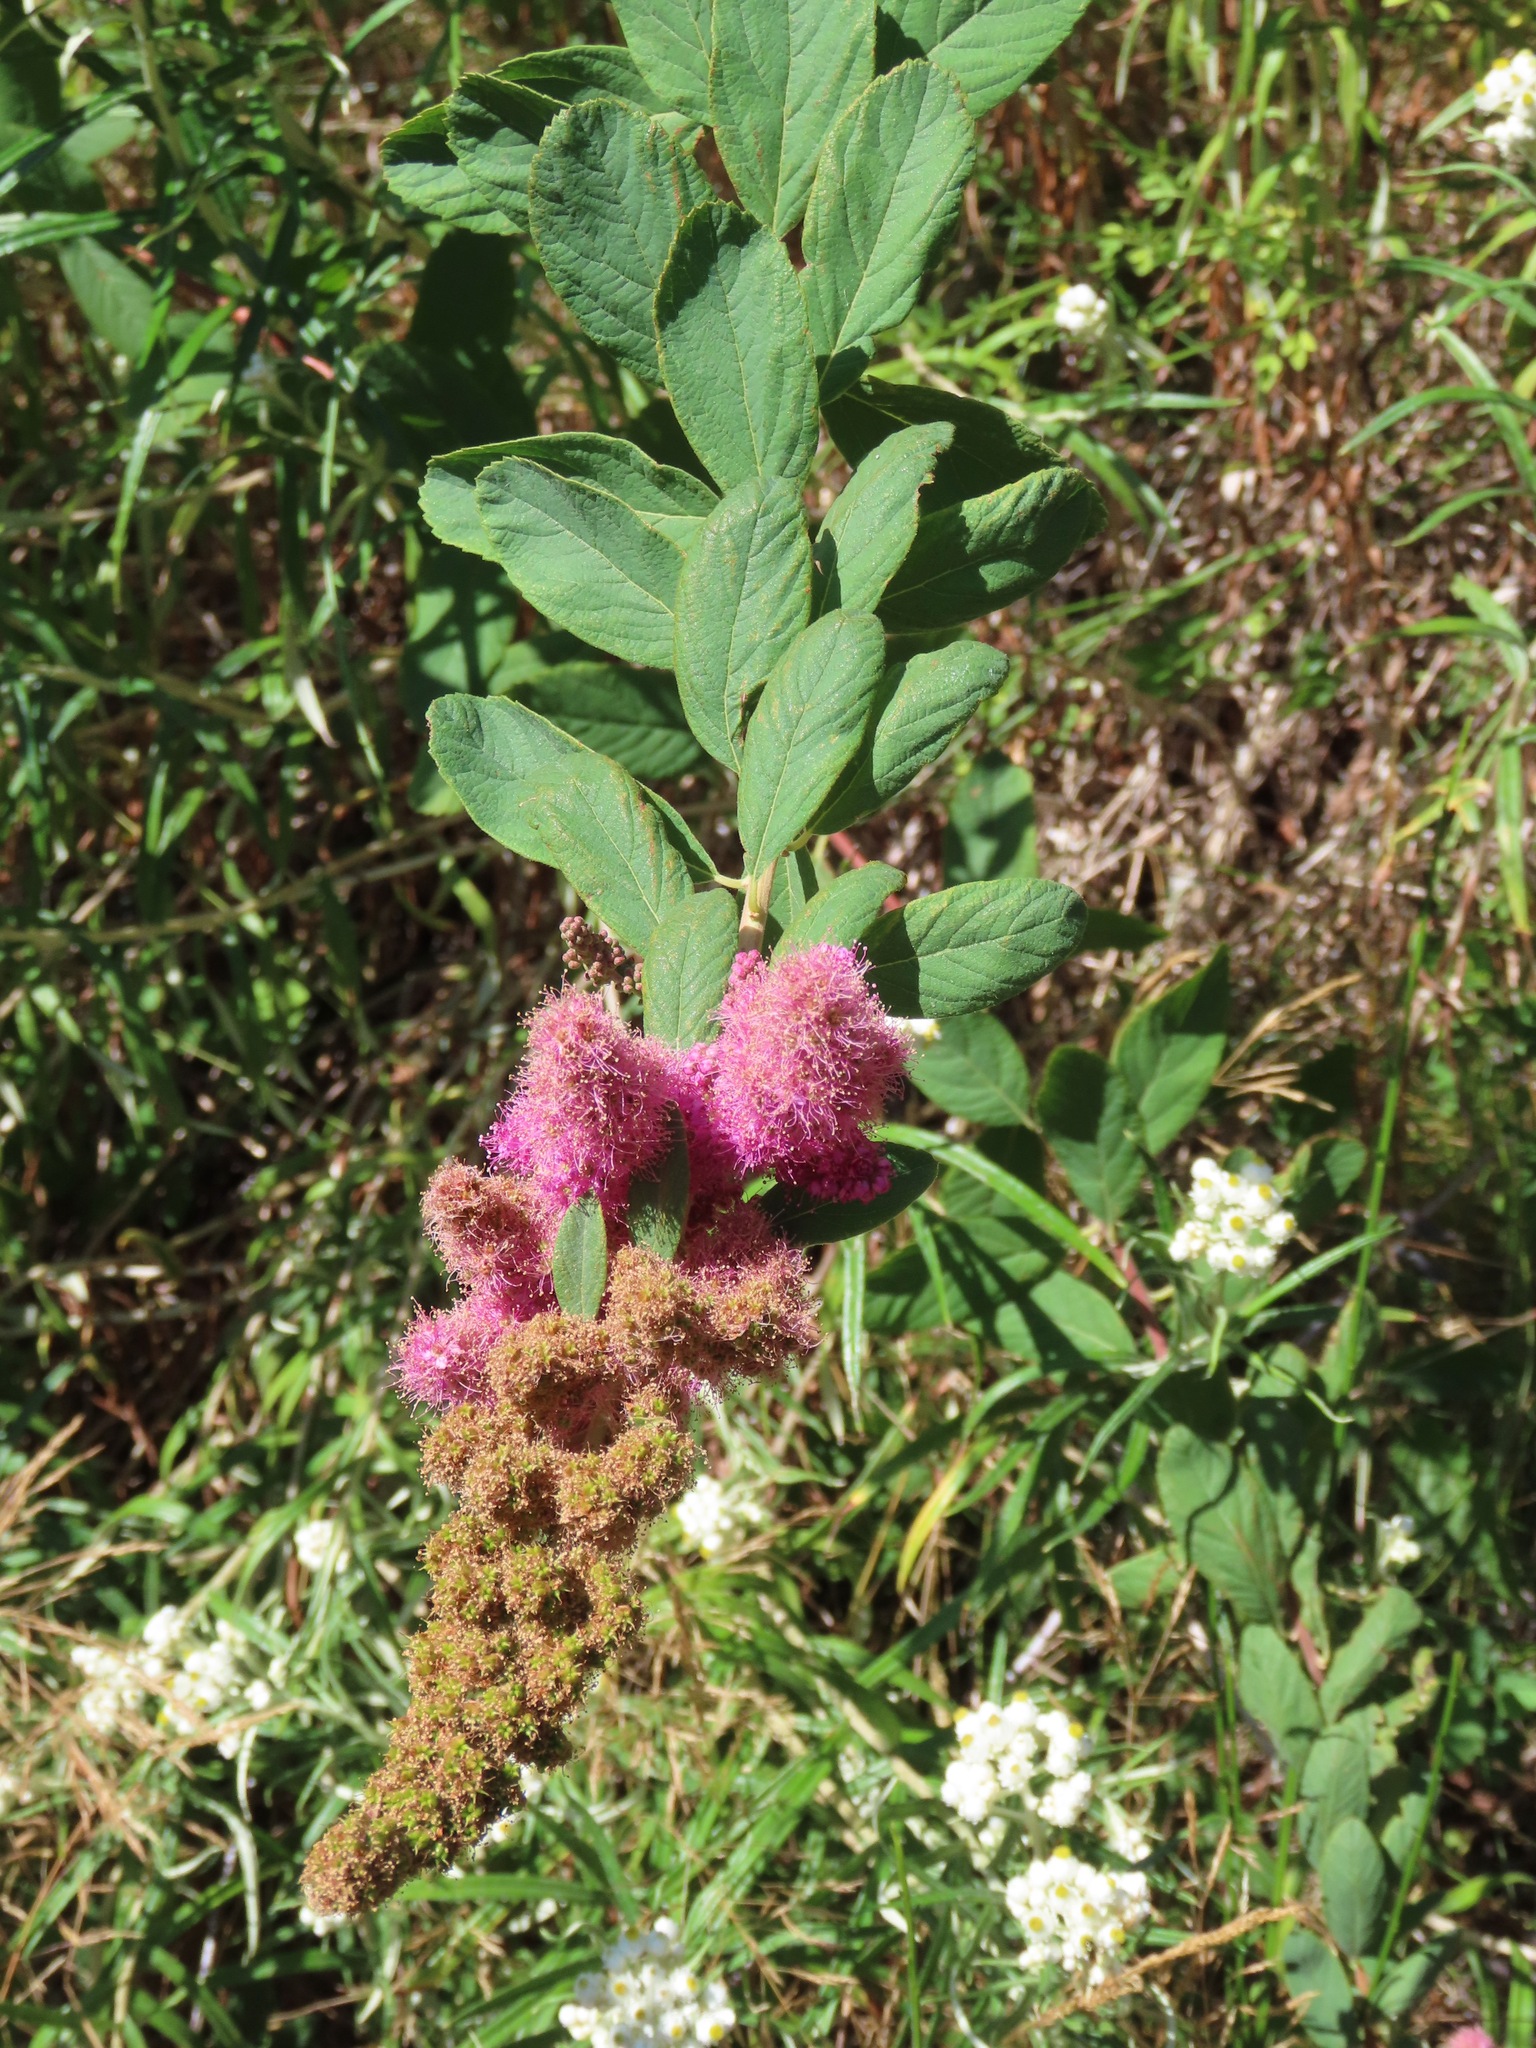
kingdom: Plantae
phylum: Tracheophyta
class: Magnoliopsida
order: Rosales
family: Rosaceae
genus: Spiraea
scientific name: Spiraea douglasii
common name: Steeplebush
